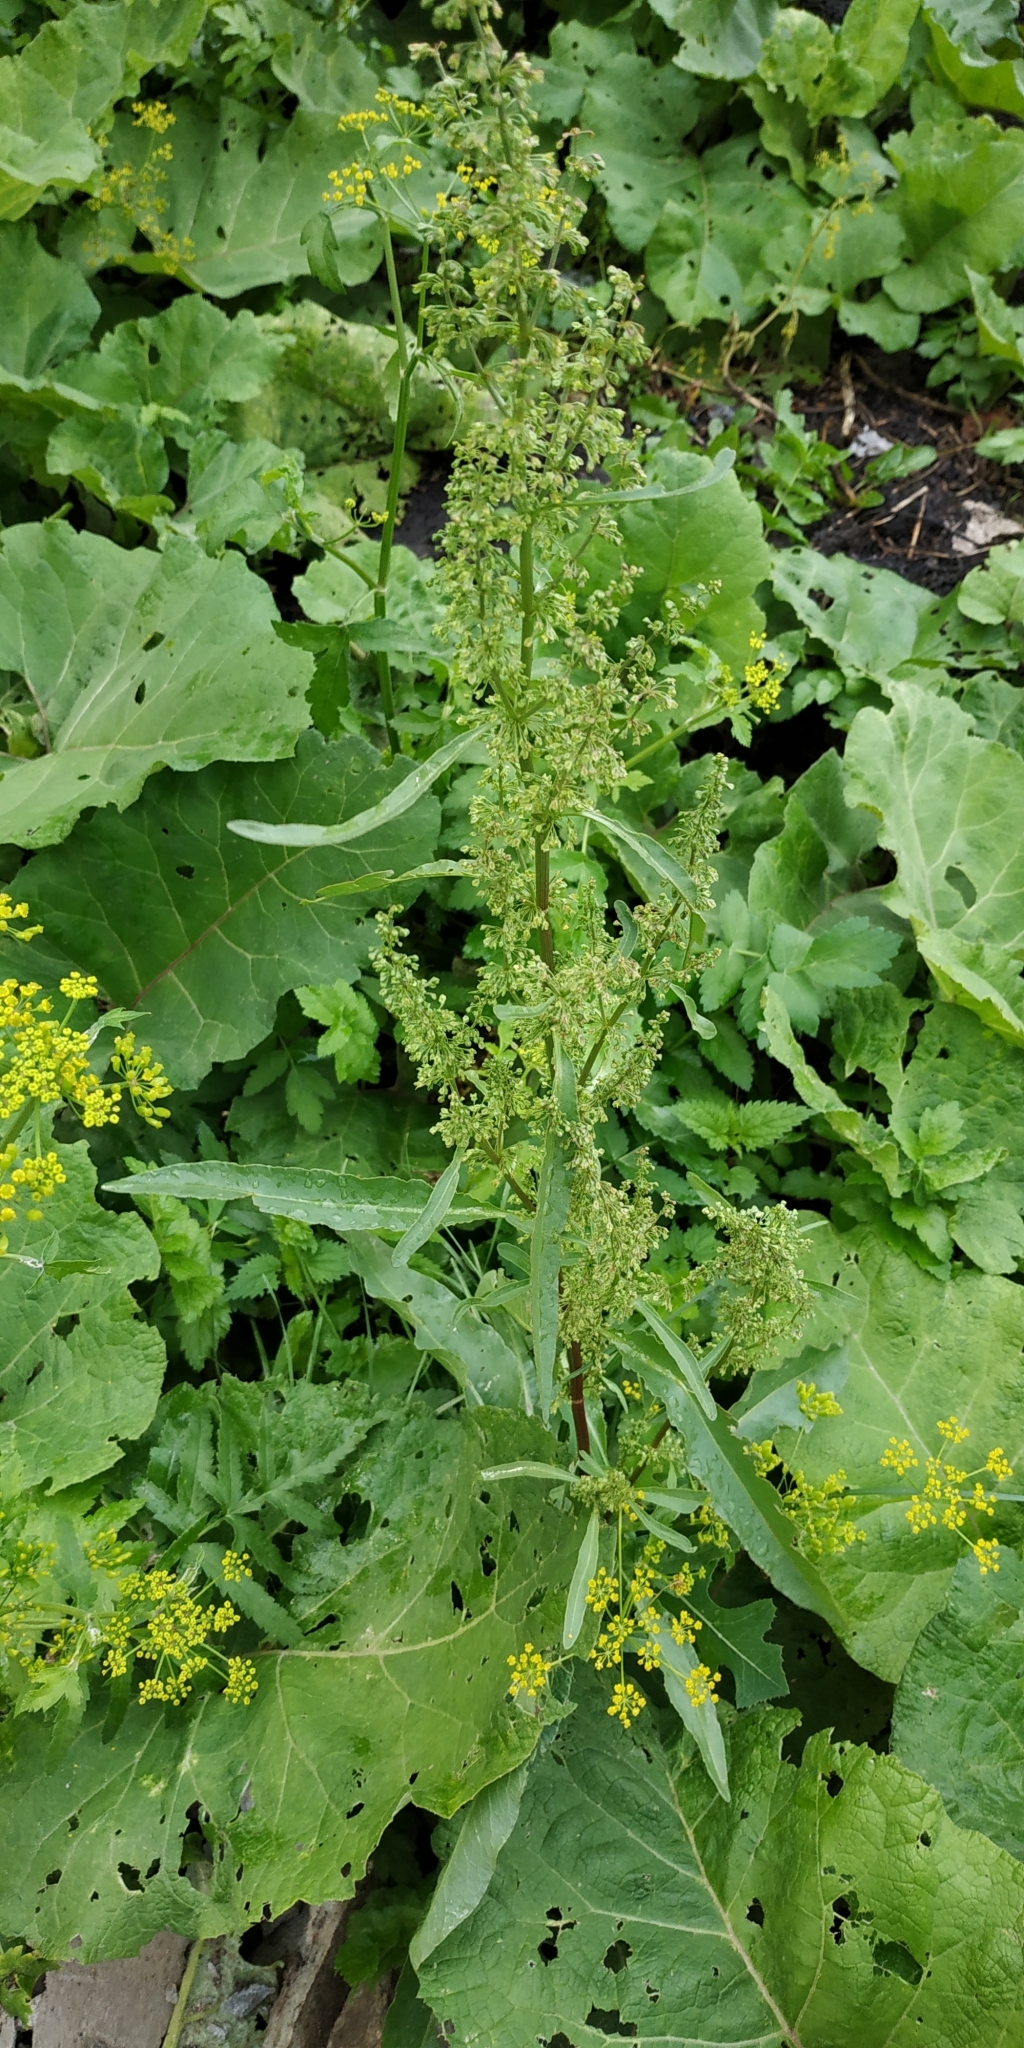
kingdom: Plantae
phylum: Tracheophyta
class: Magnoliopsida
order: Caryophyllales
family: Polygonaceae
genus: Rumex
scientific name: Rumex pseudonatronatus
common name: Field dock
